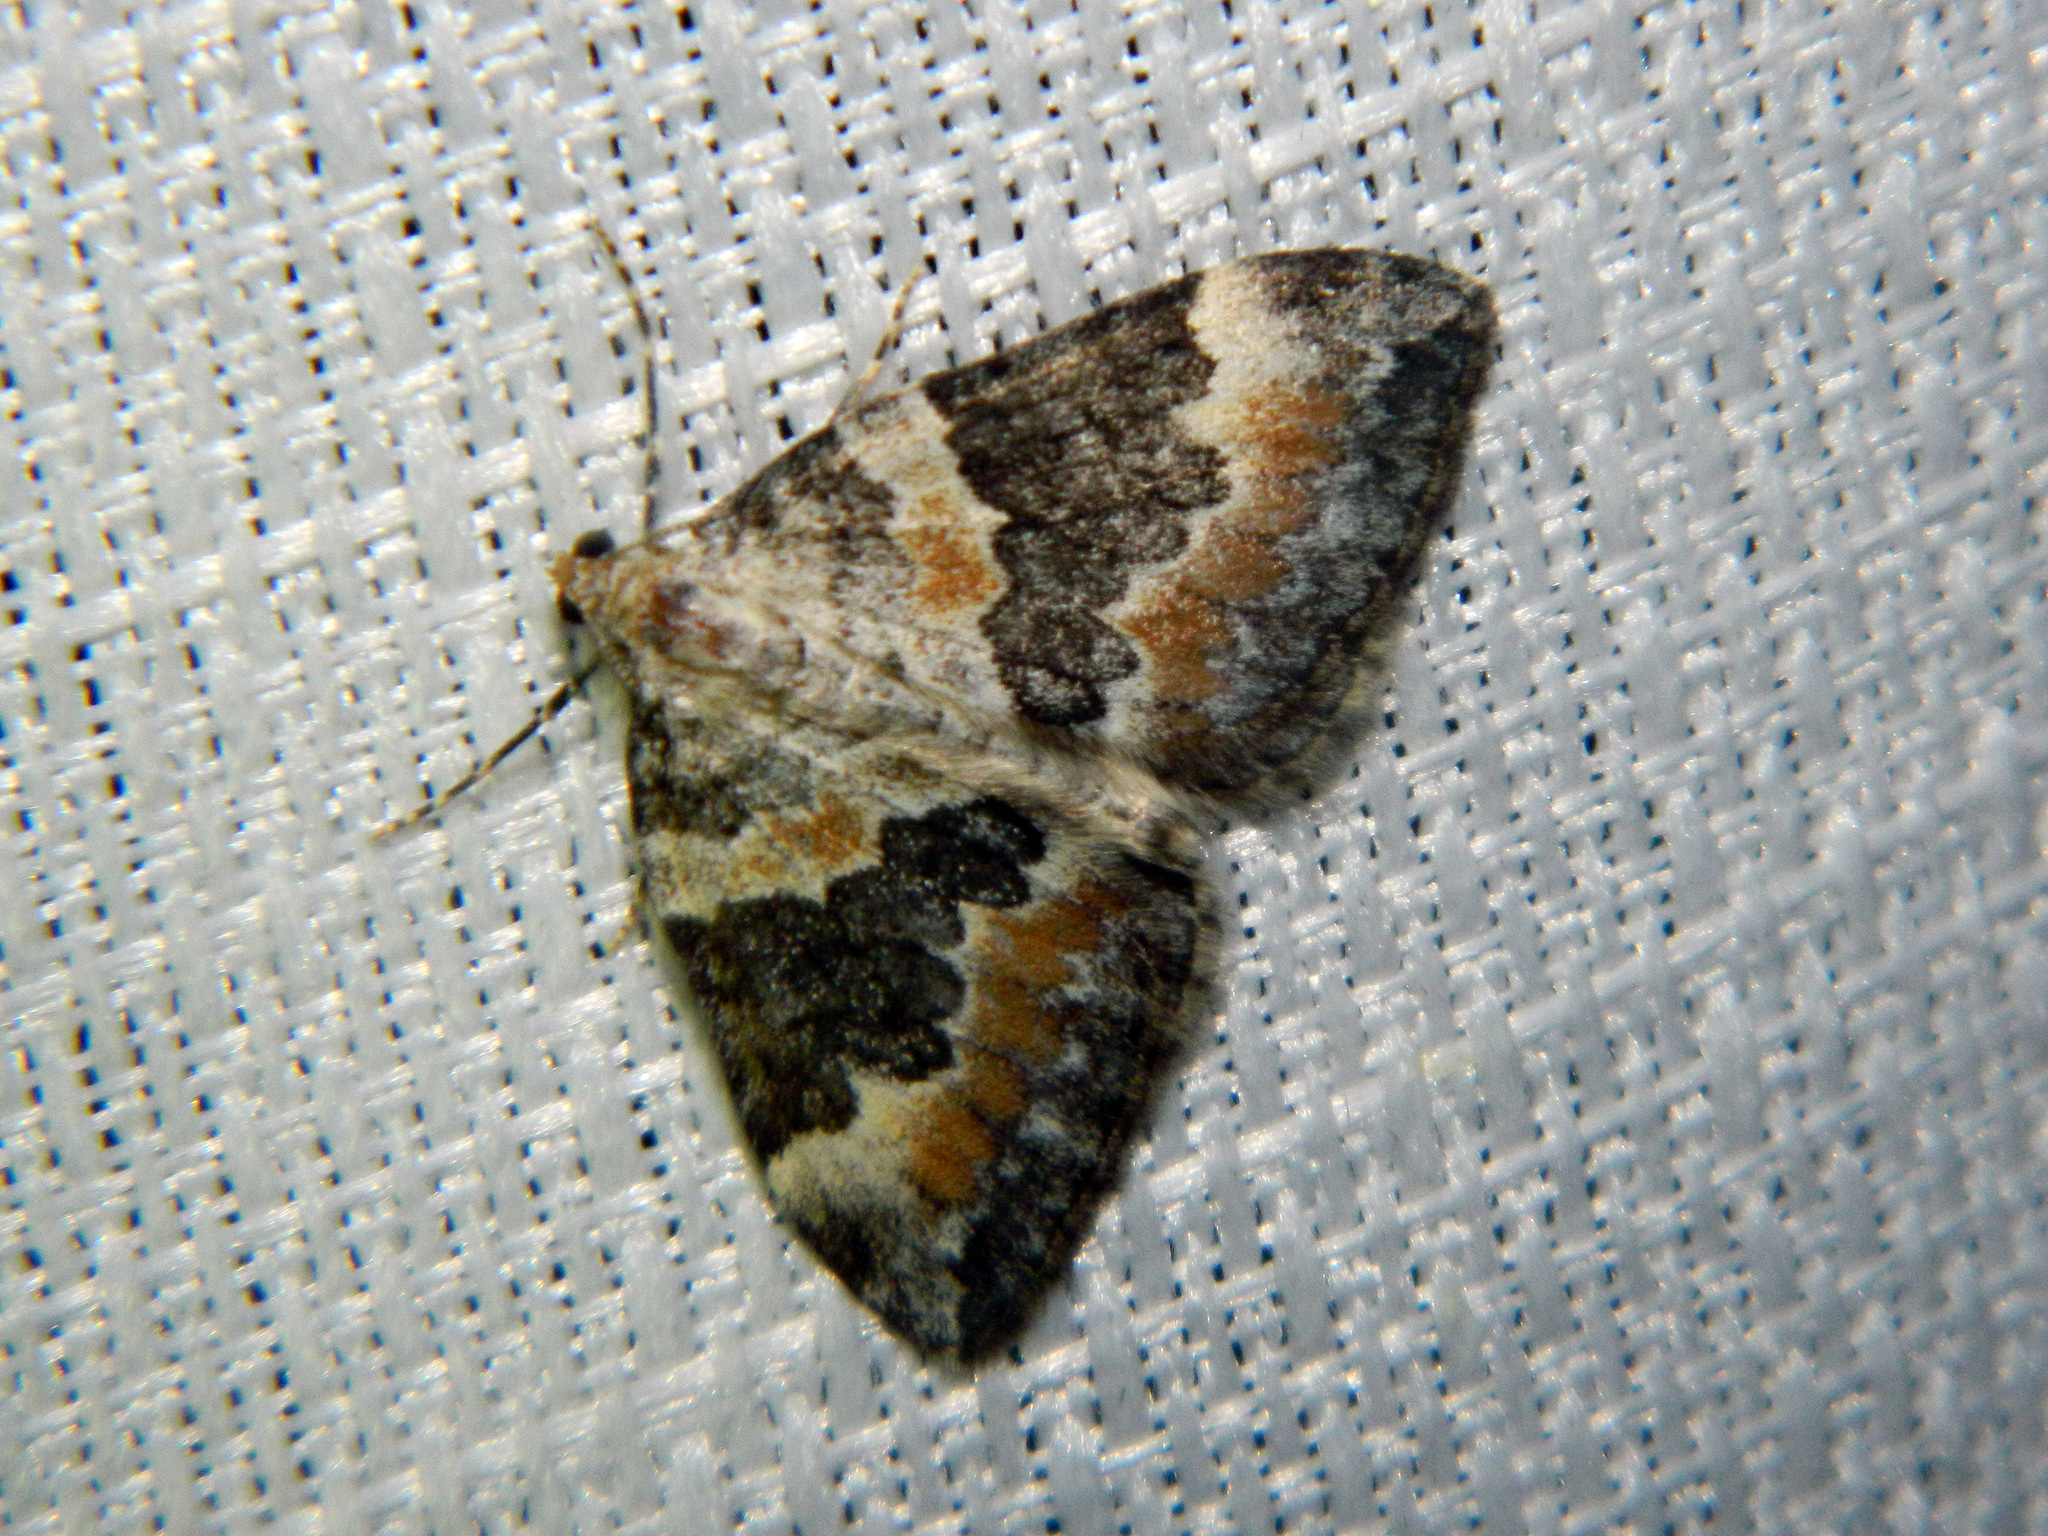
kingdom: Animalia
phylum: Arthropoda
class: Insecta
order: Lepidoptera
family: Geometridae
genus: Dysstroma
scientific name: Dysstroma brunneata
